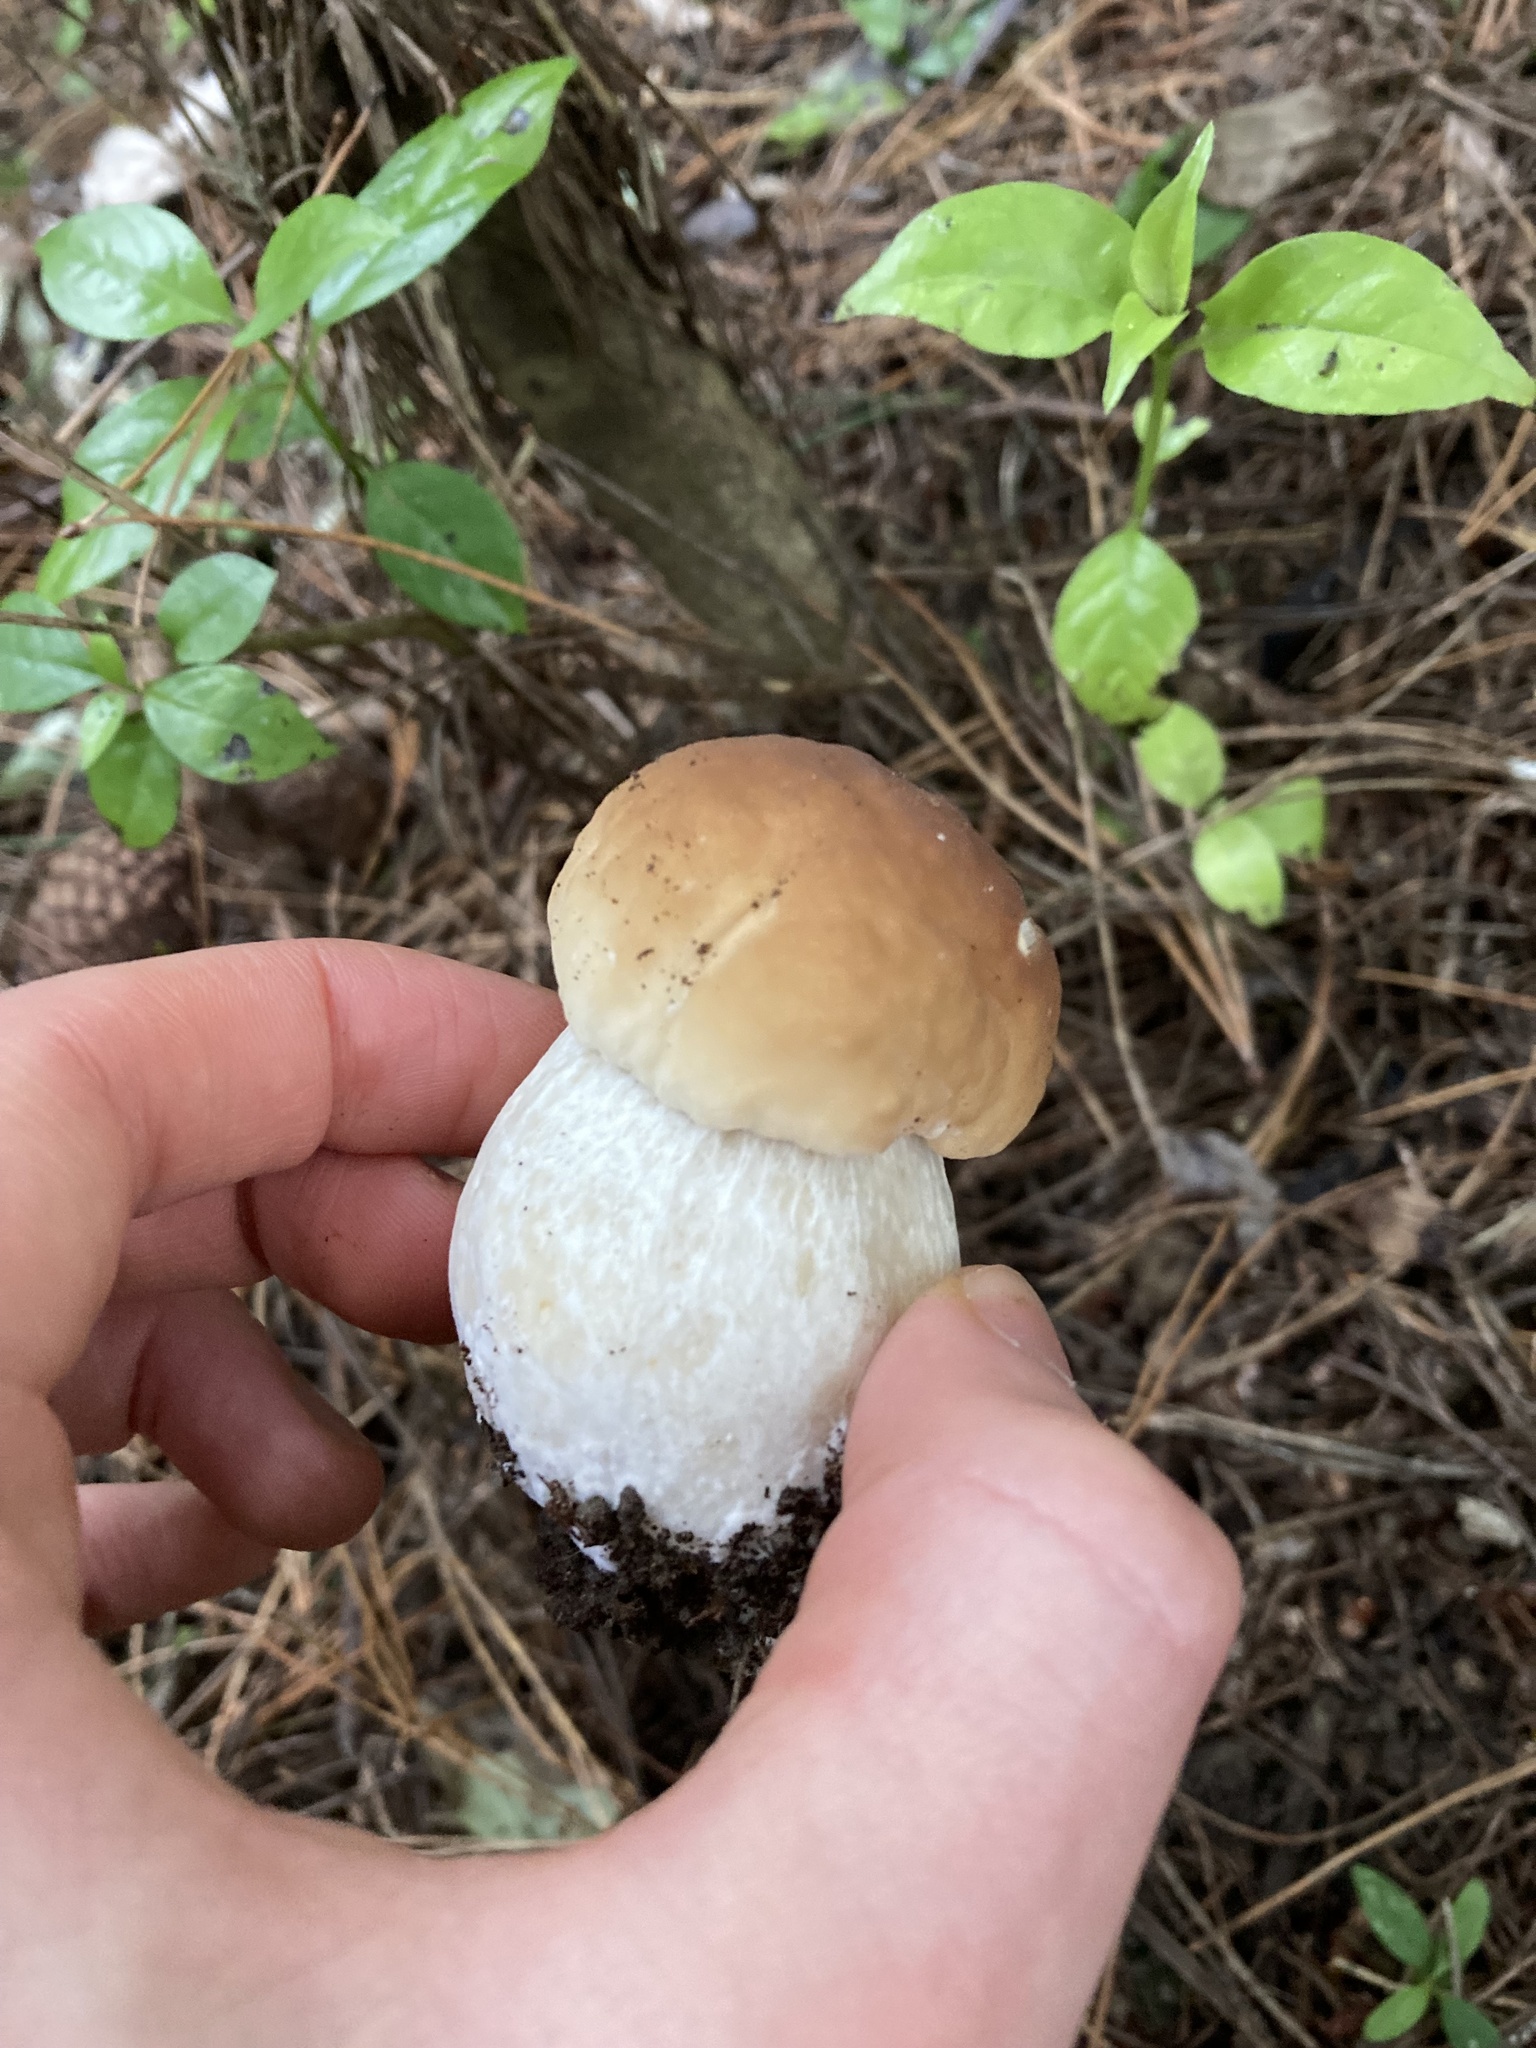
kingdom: Fungi
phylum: Basidiomycota
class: Agaricomycetes
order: Boletales
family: Boletaceae
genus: Boletus
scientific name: Boletus edulis
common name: Cep
